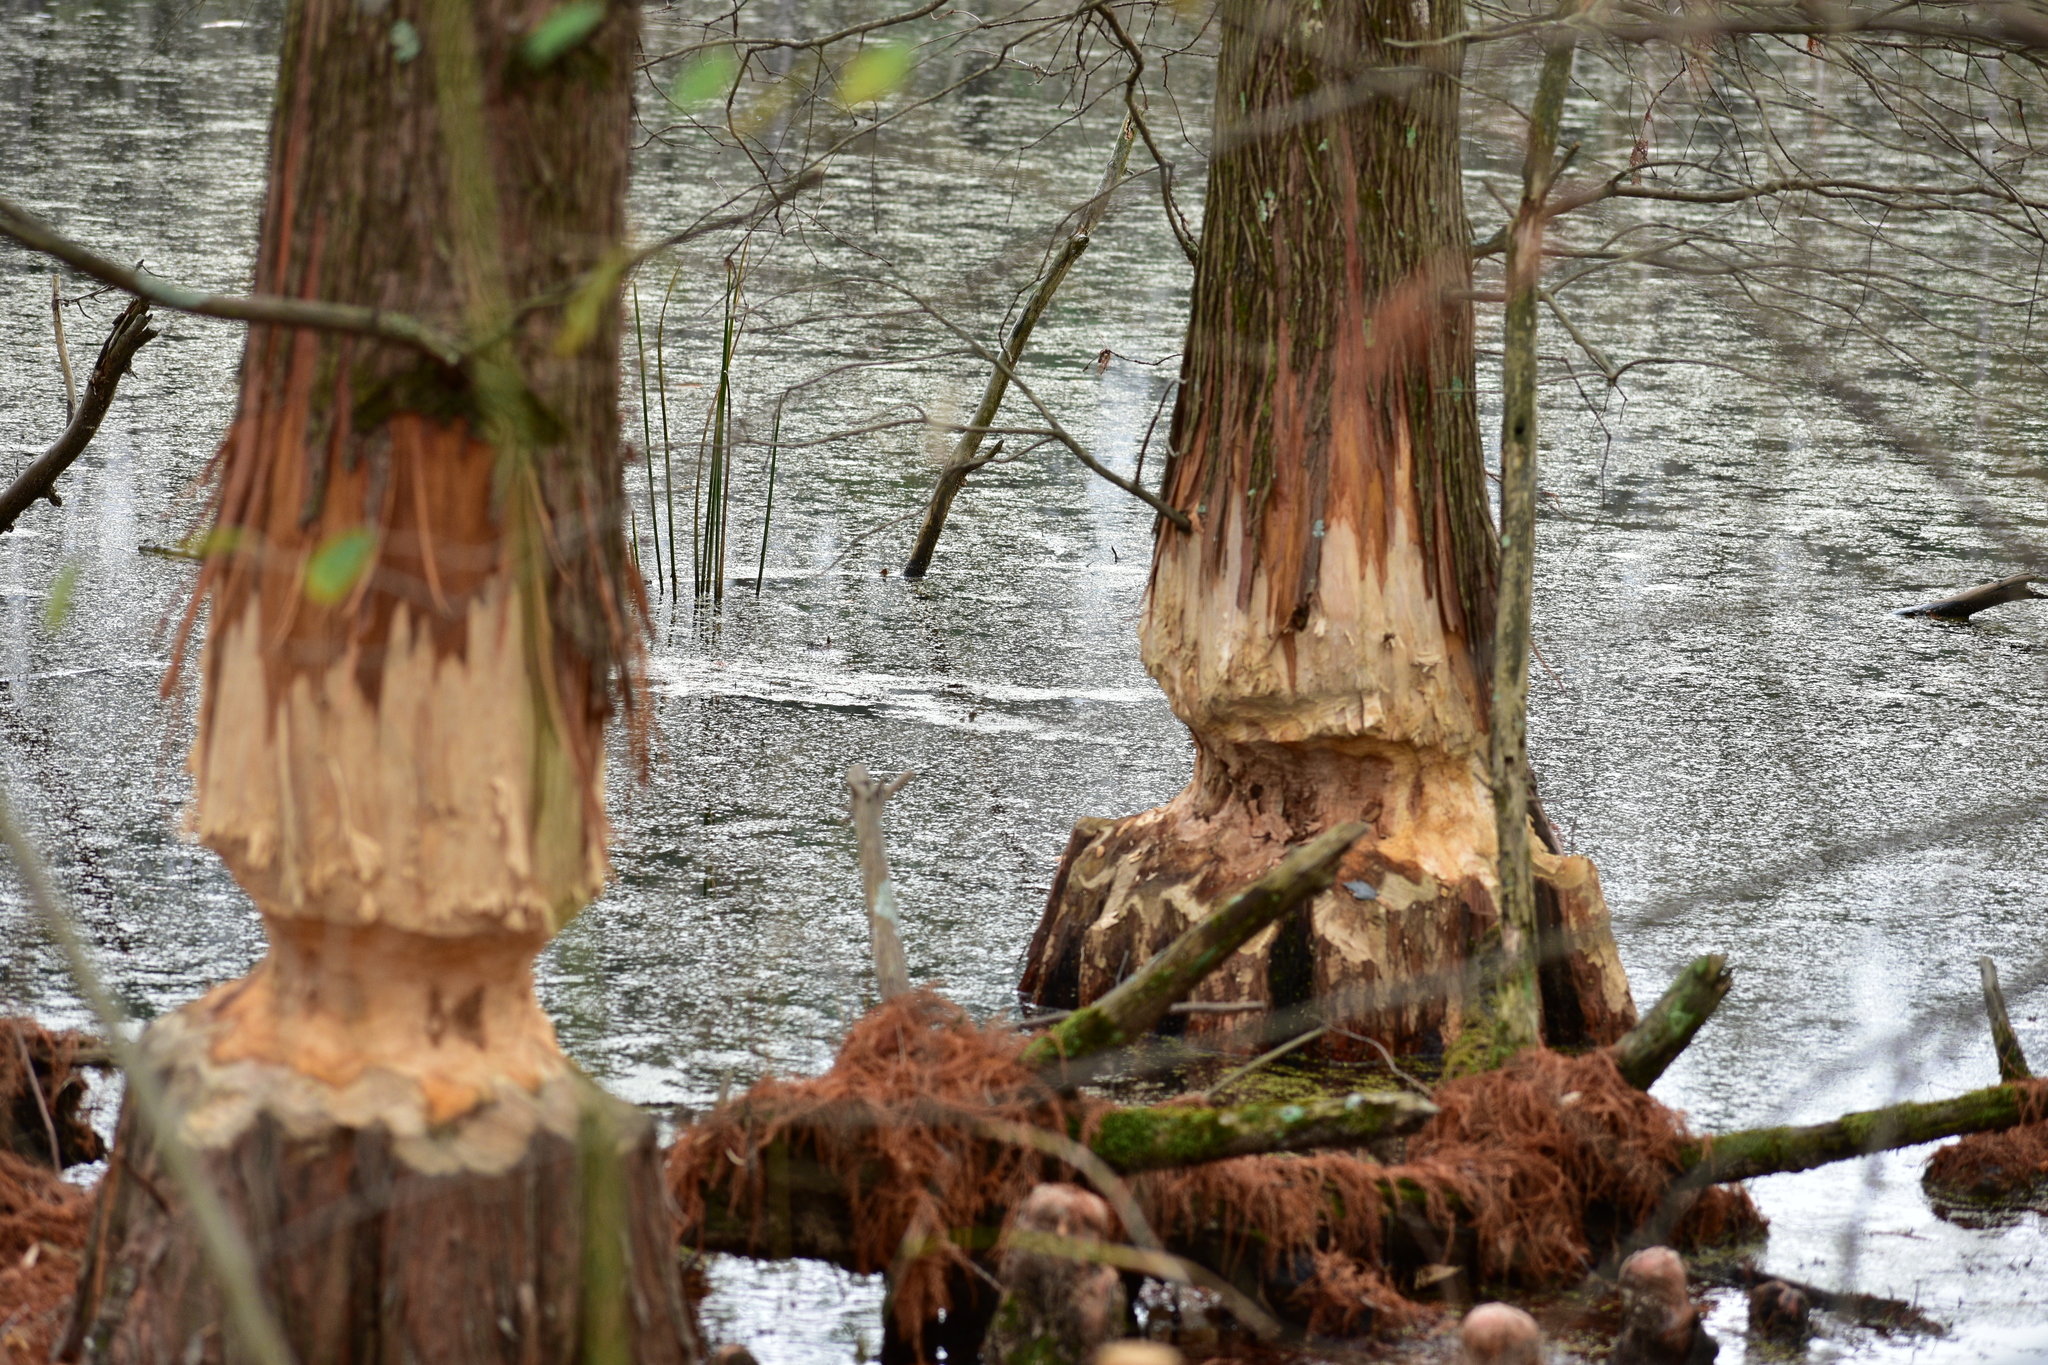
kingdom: Animalia
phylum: Chordata
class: Mammalia
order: Rodentia
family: Castoridae
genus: Castor
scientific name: Castor canadensis
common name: American beaver
